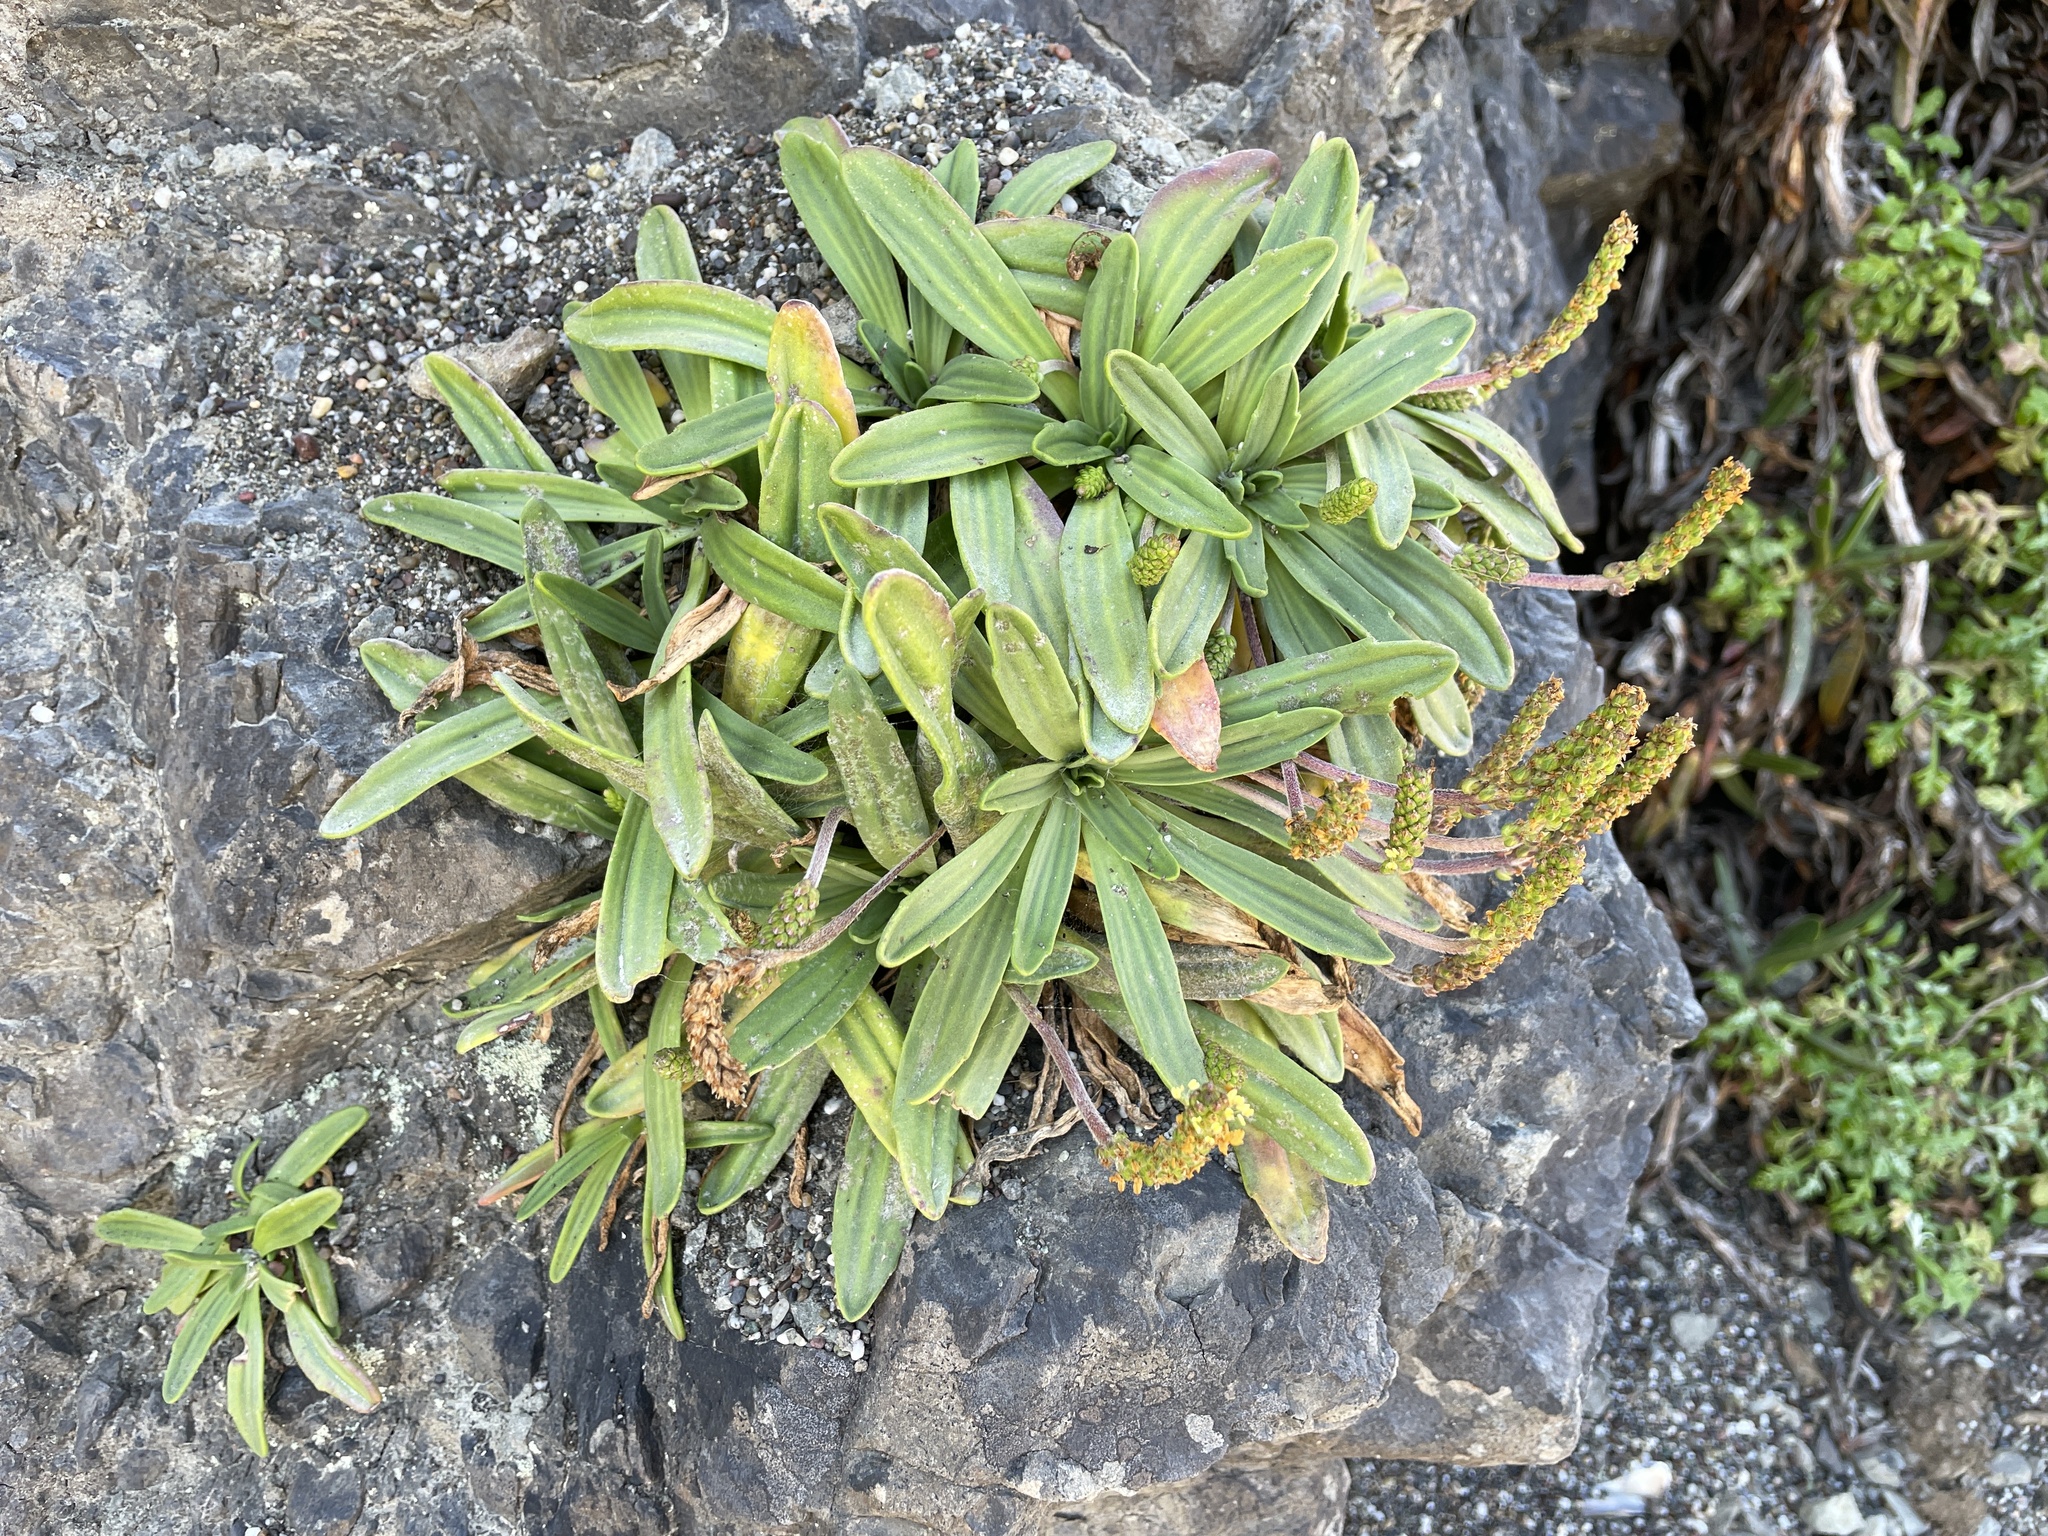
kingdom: Plantae
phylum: Tracheophyta
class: Magnoliopsida
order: Lamiales
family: Plantaginaceae
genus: Plantago
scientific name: Plantago maritima
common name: Sea plantain
